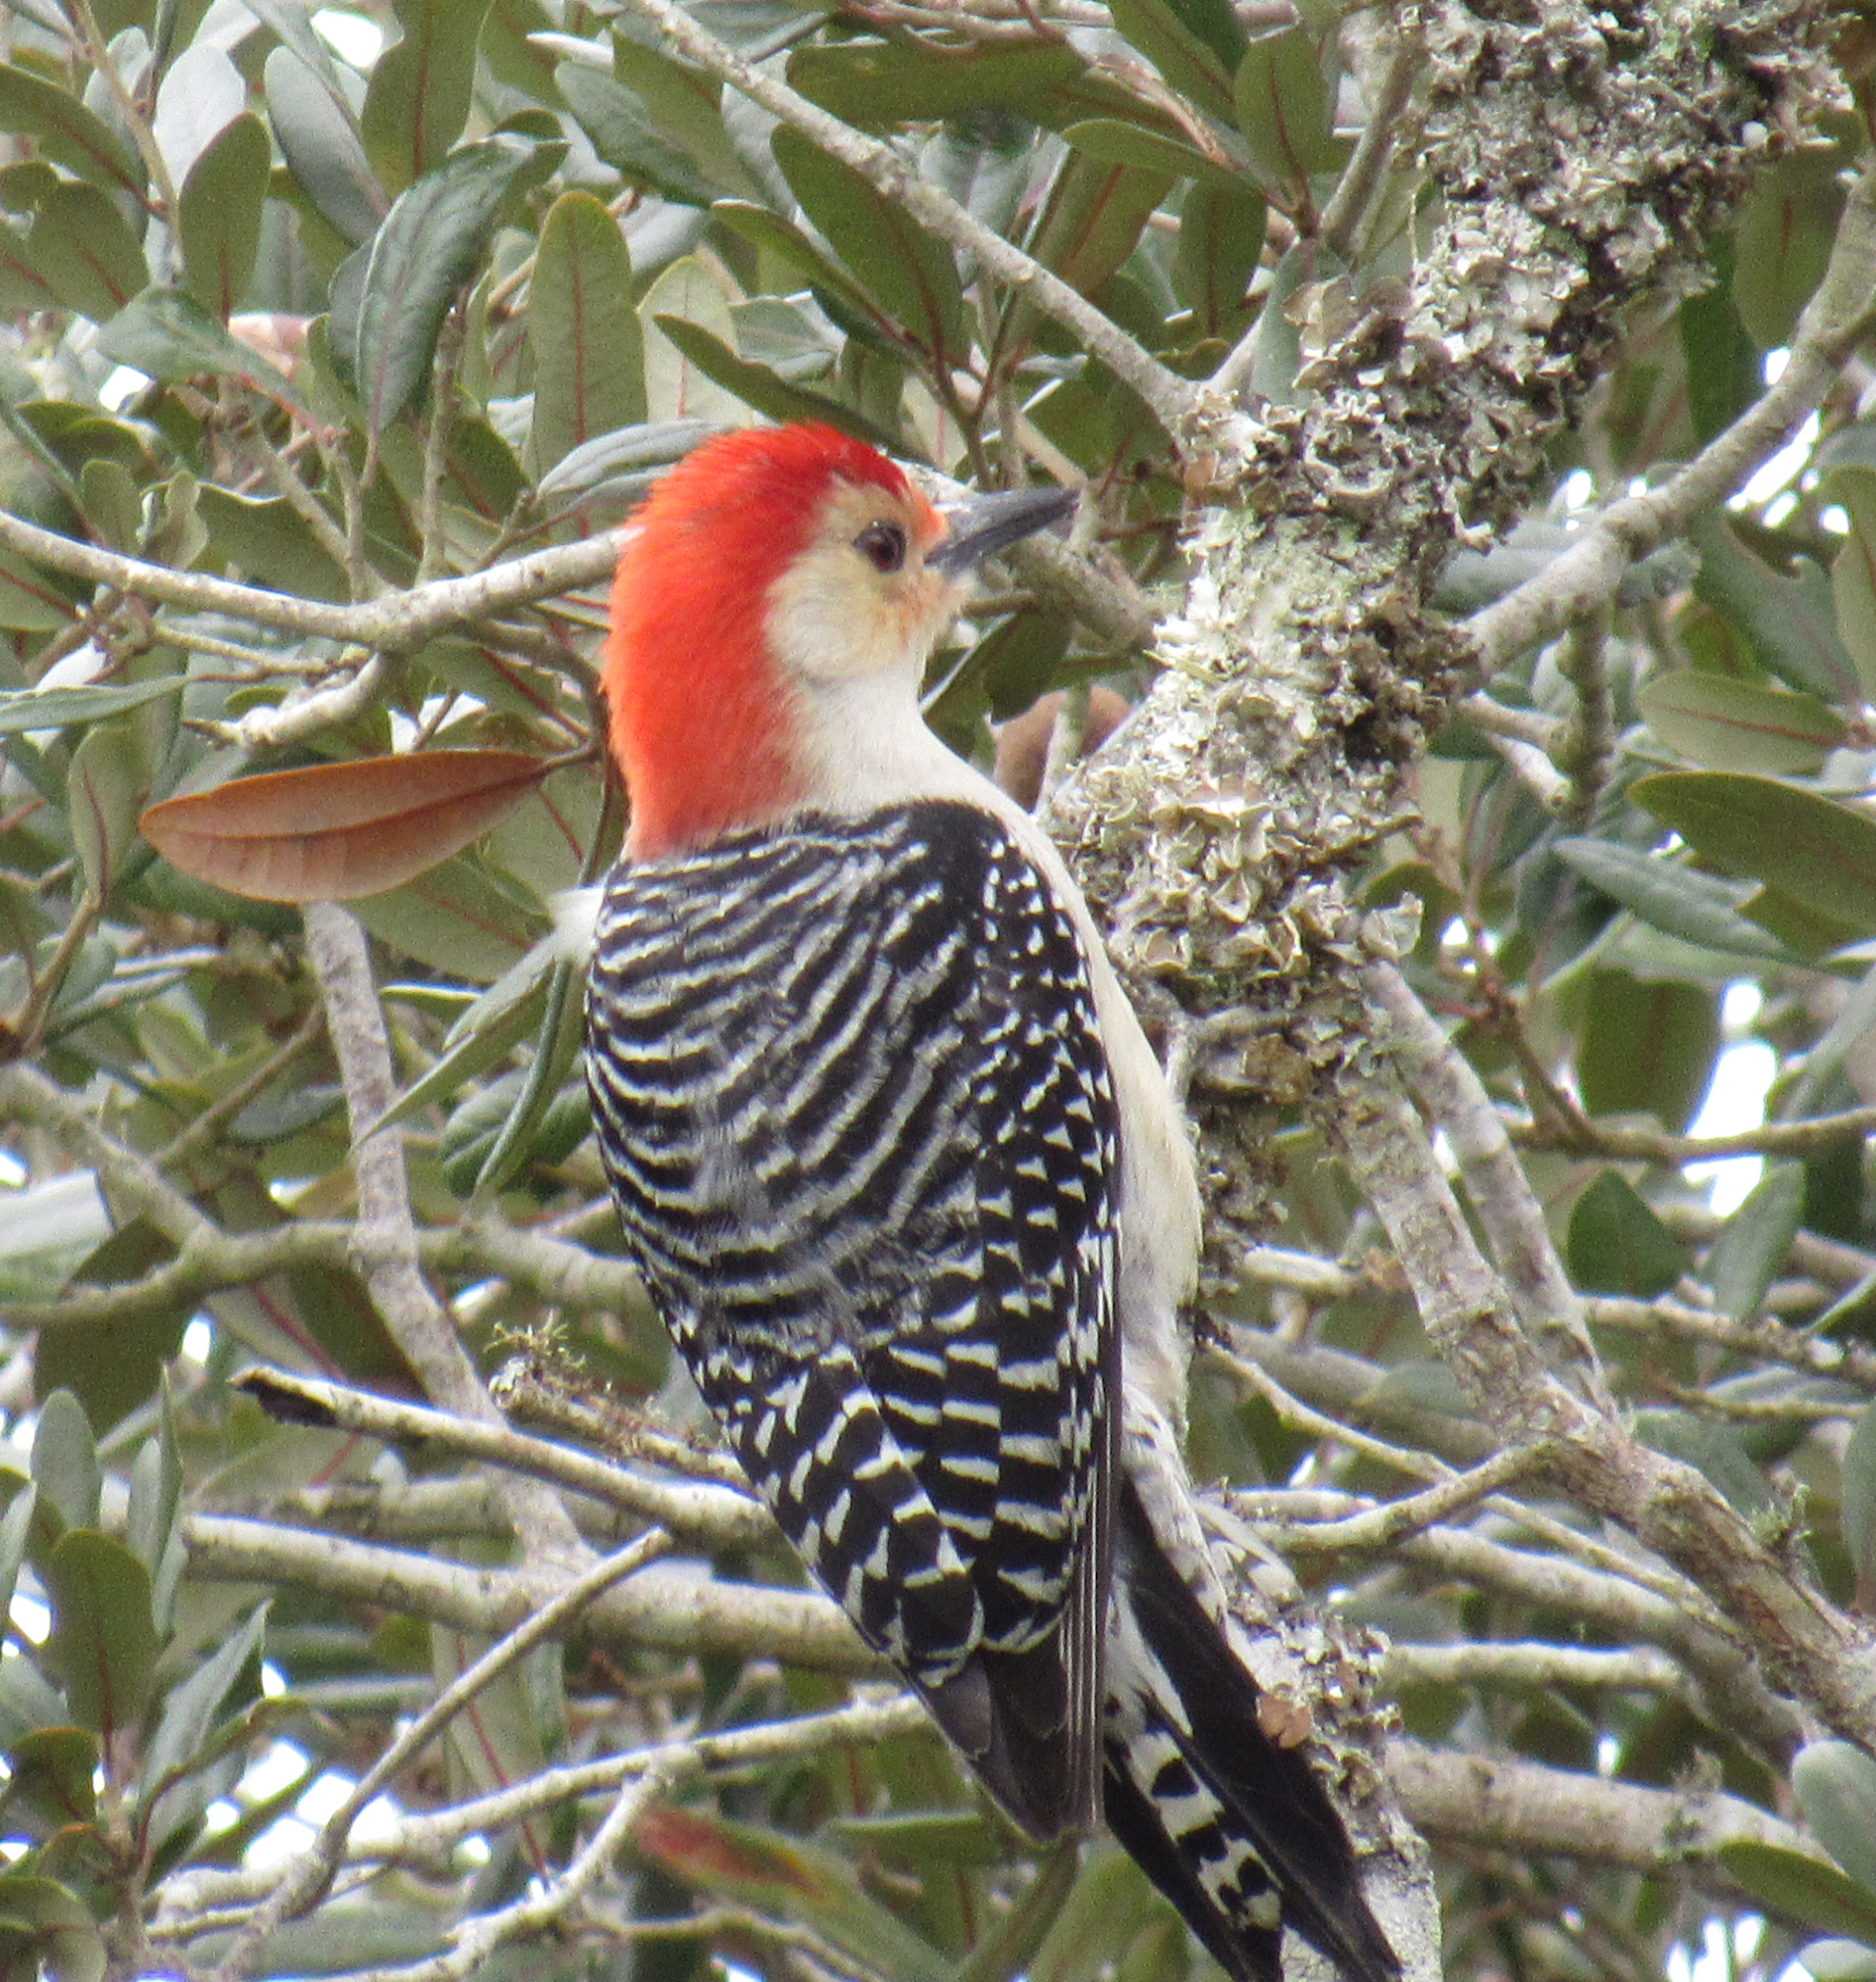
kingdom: Animalia
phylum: Chordata
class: Aves
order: Piciformes
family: Picidae
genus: Melanerpes
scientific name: Melanerpes carolinus
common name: Red-bellied woodpecker
